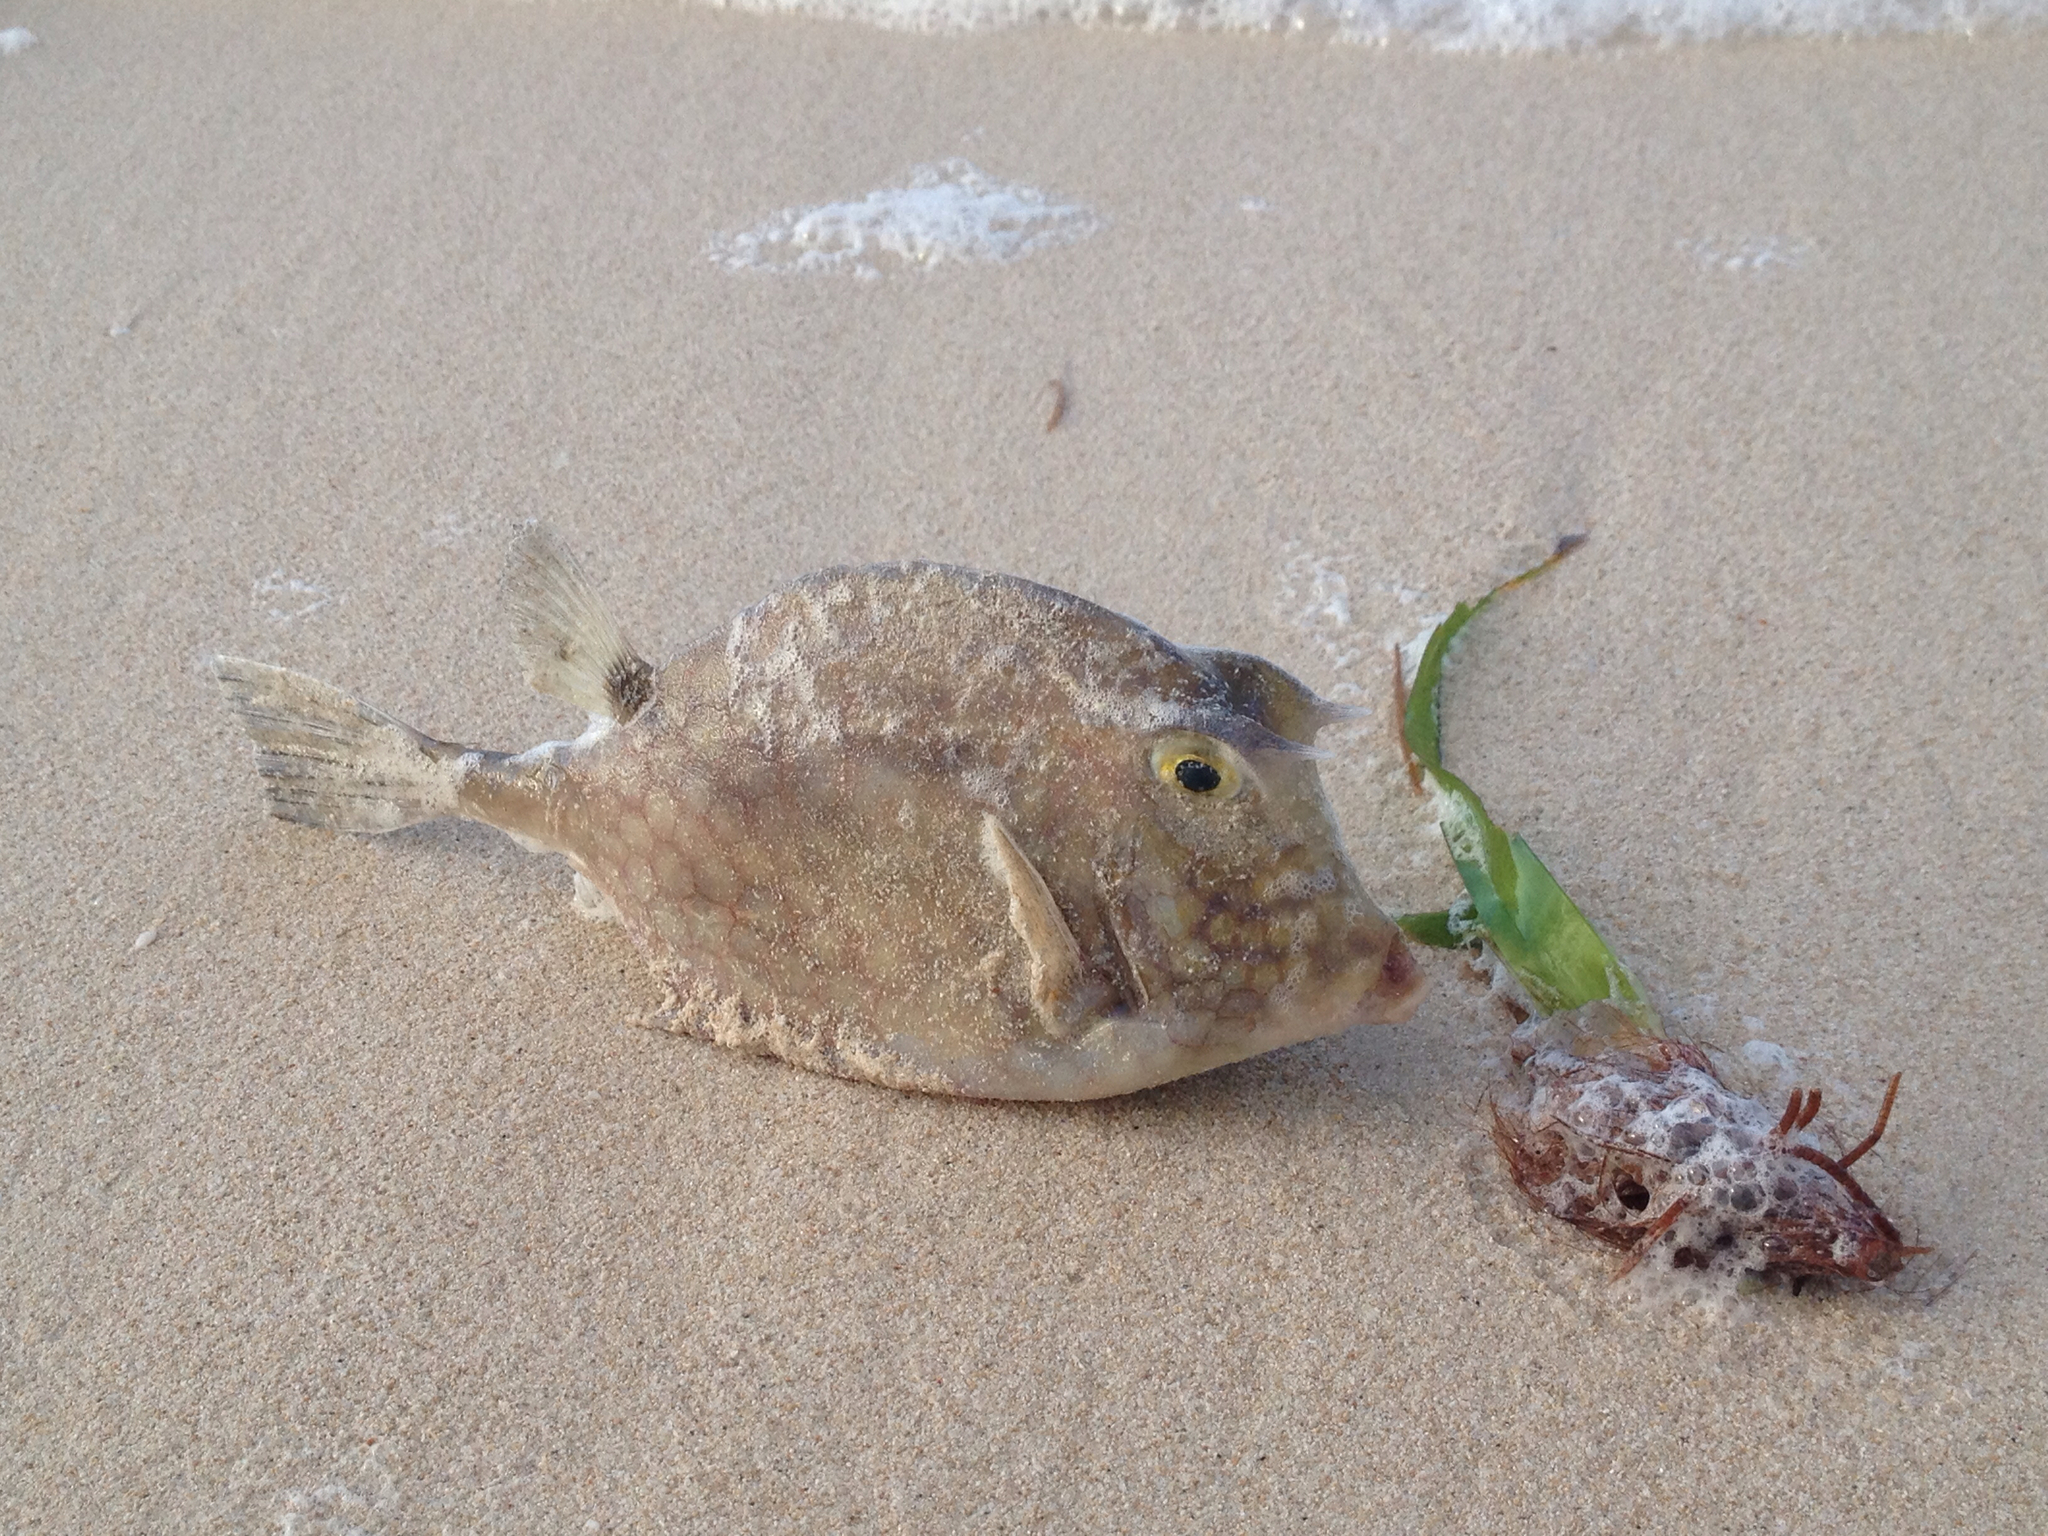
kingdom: Animalia
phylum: Chordata
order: Tetraodontiformes
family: Ostraciidae
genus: Acanthostracion
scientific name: Acanthostracion quadricornis
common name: Scrawled cowfish
